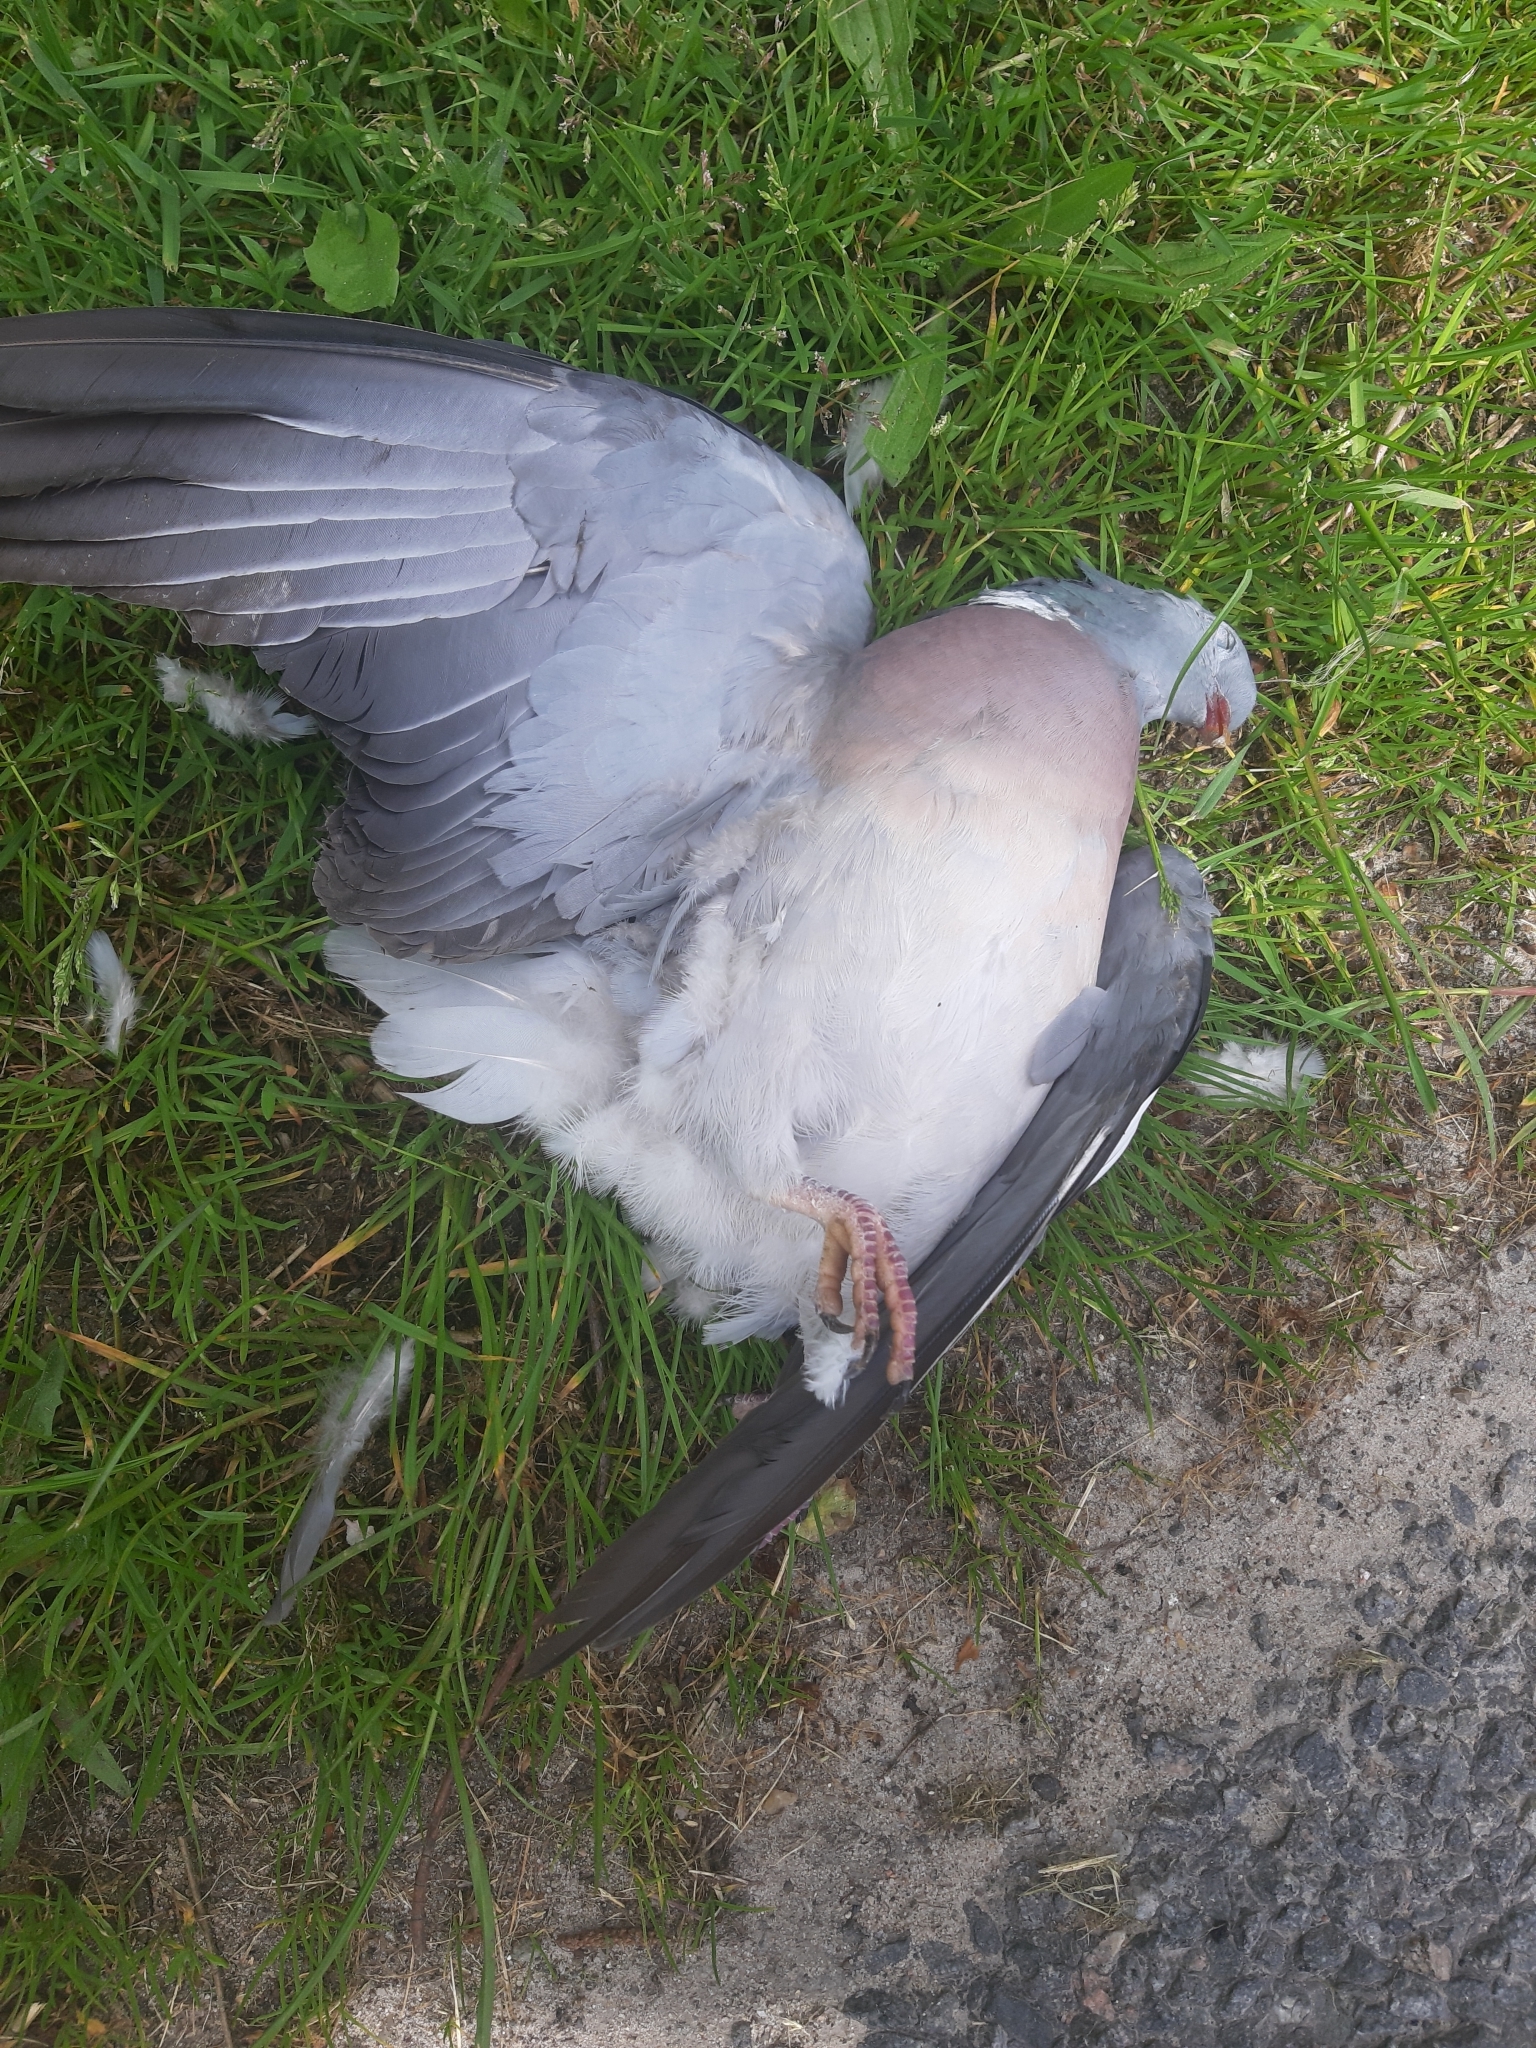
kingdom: Animalia
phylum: Chordata
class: Aves
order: Columbiformes
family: Columbidae
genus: Columba
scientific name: Columba palumbus
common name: Common wood pigeon
